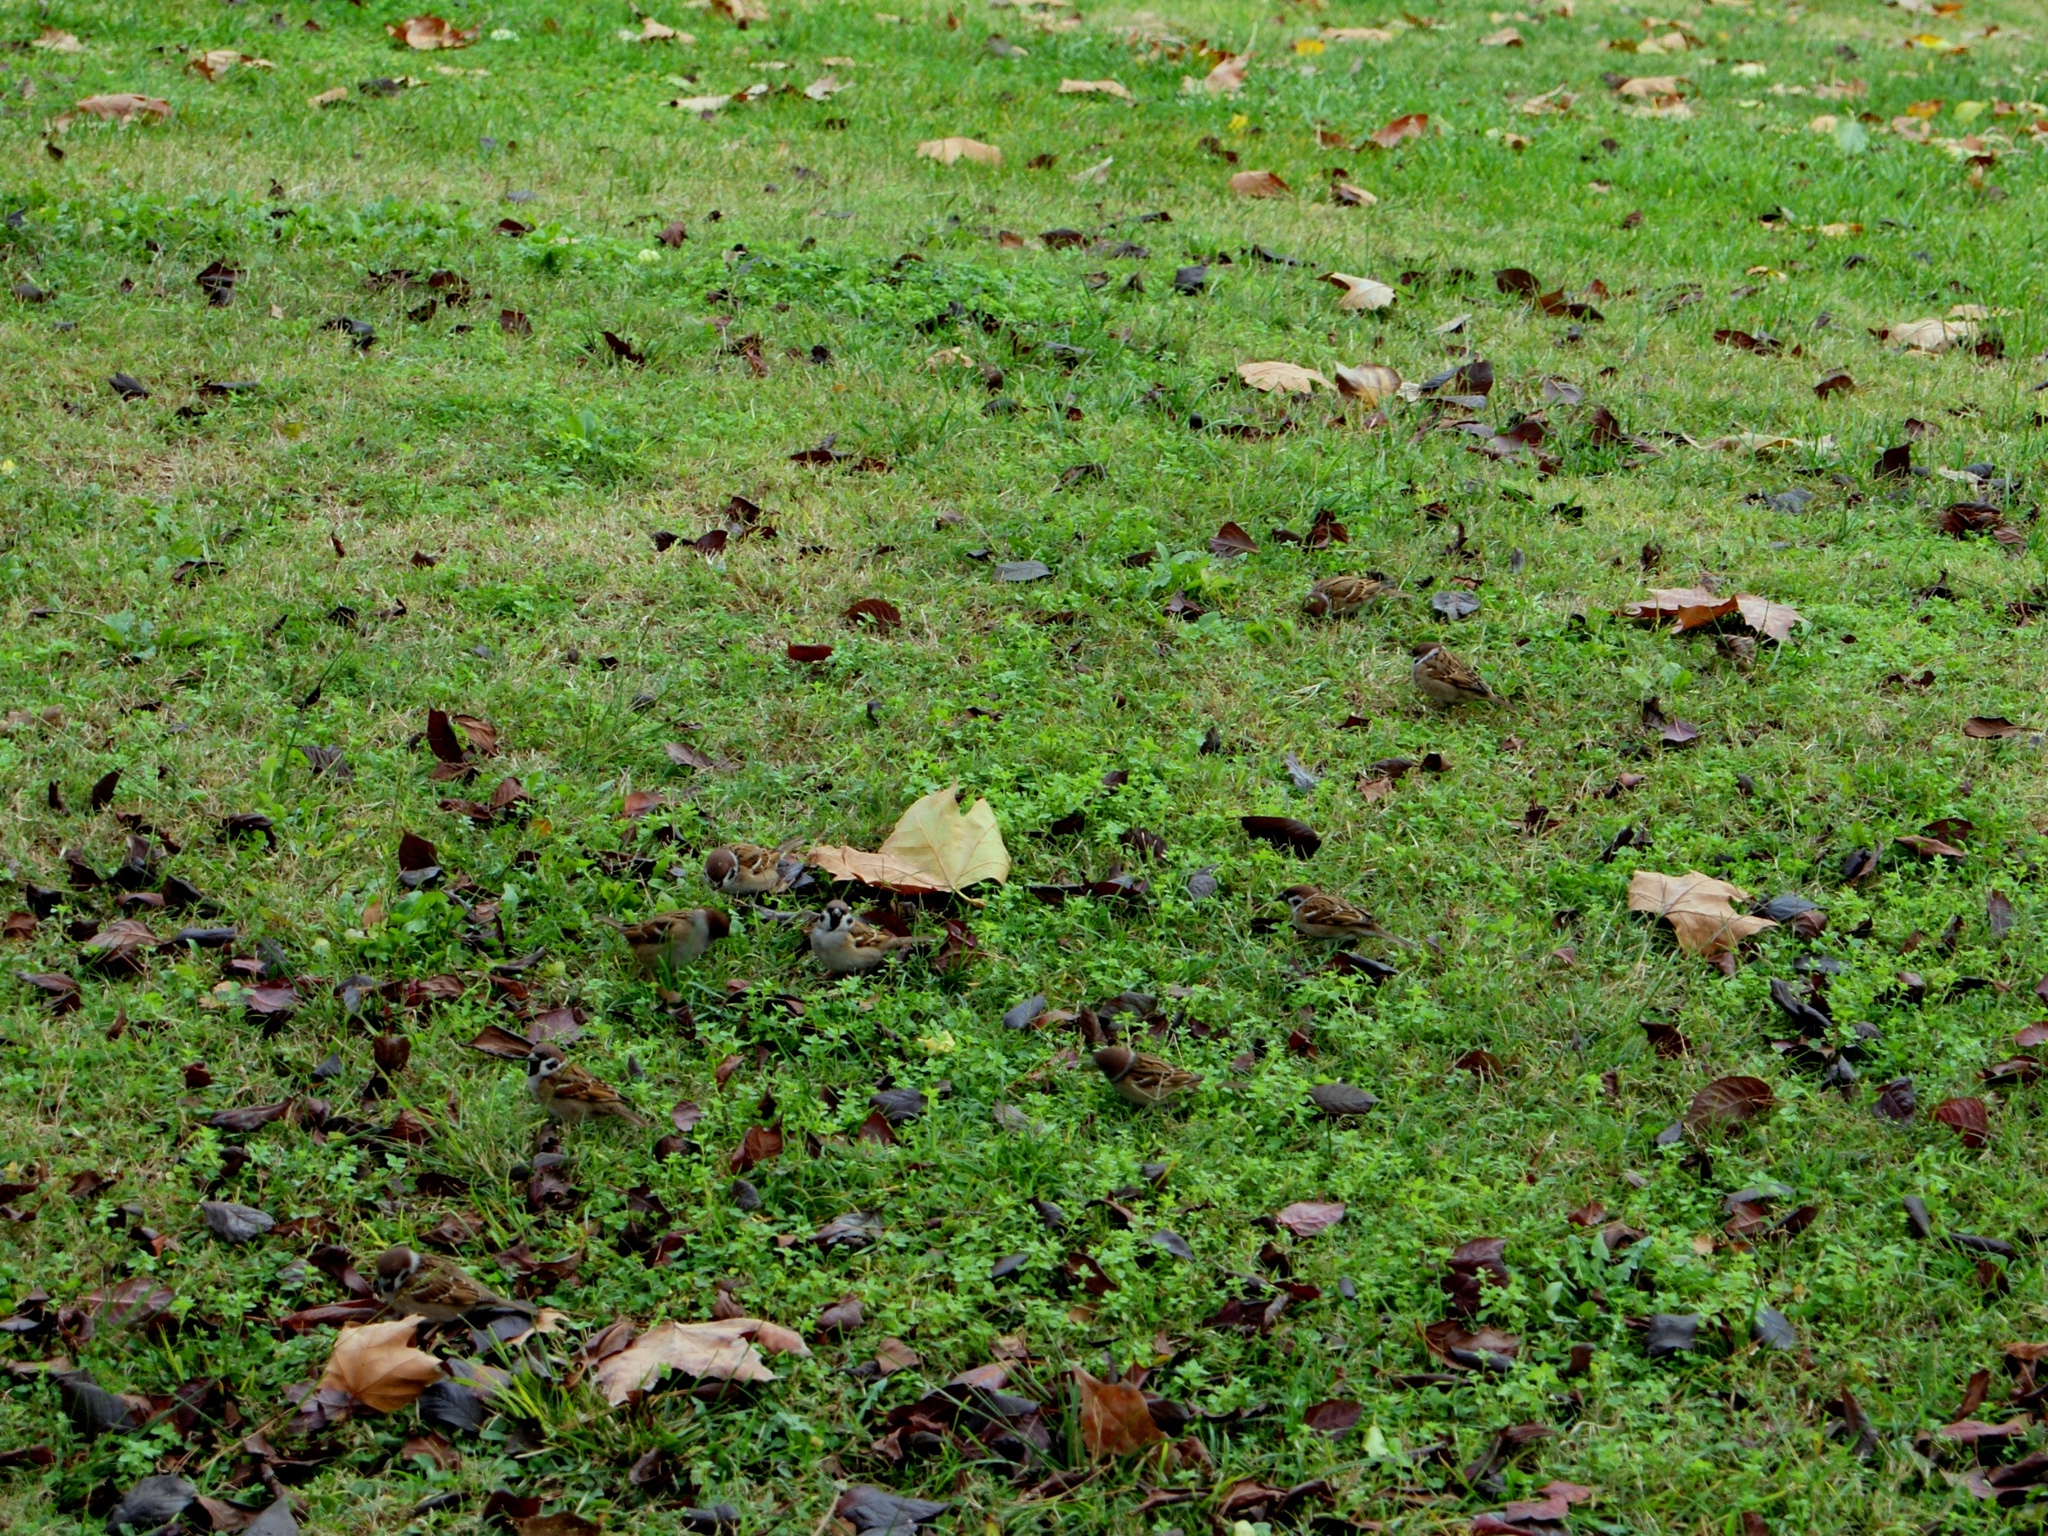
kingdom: Animalia
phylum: Chordata
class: Aves
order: Passeriformes
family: Passeridae
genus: Passer
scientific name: Passer montanus
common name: Eurasian tree sparrow
